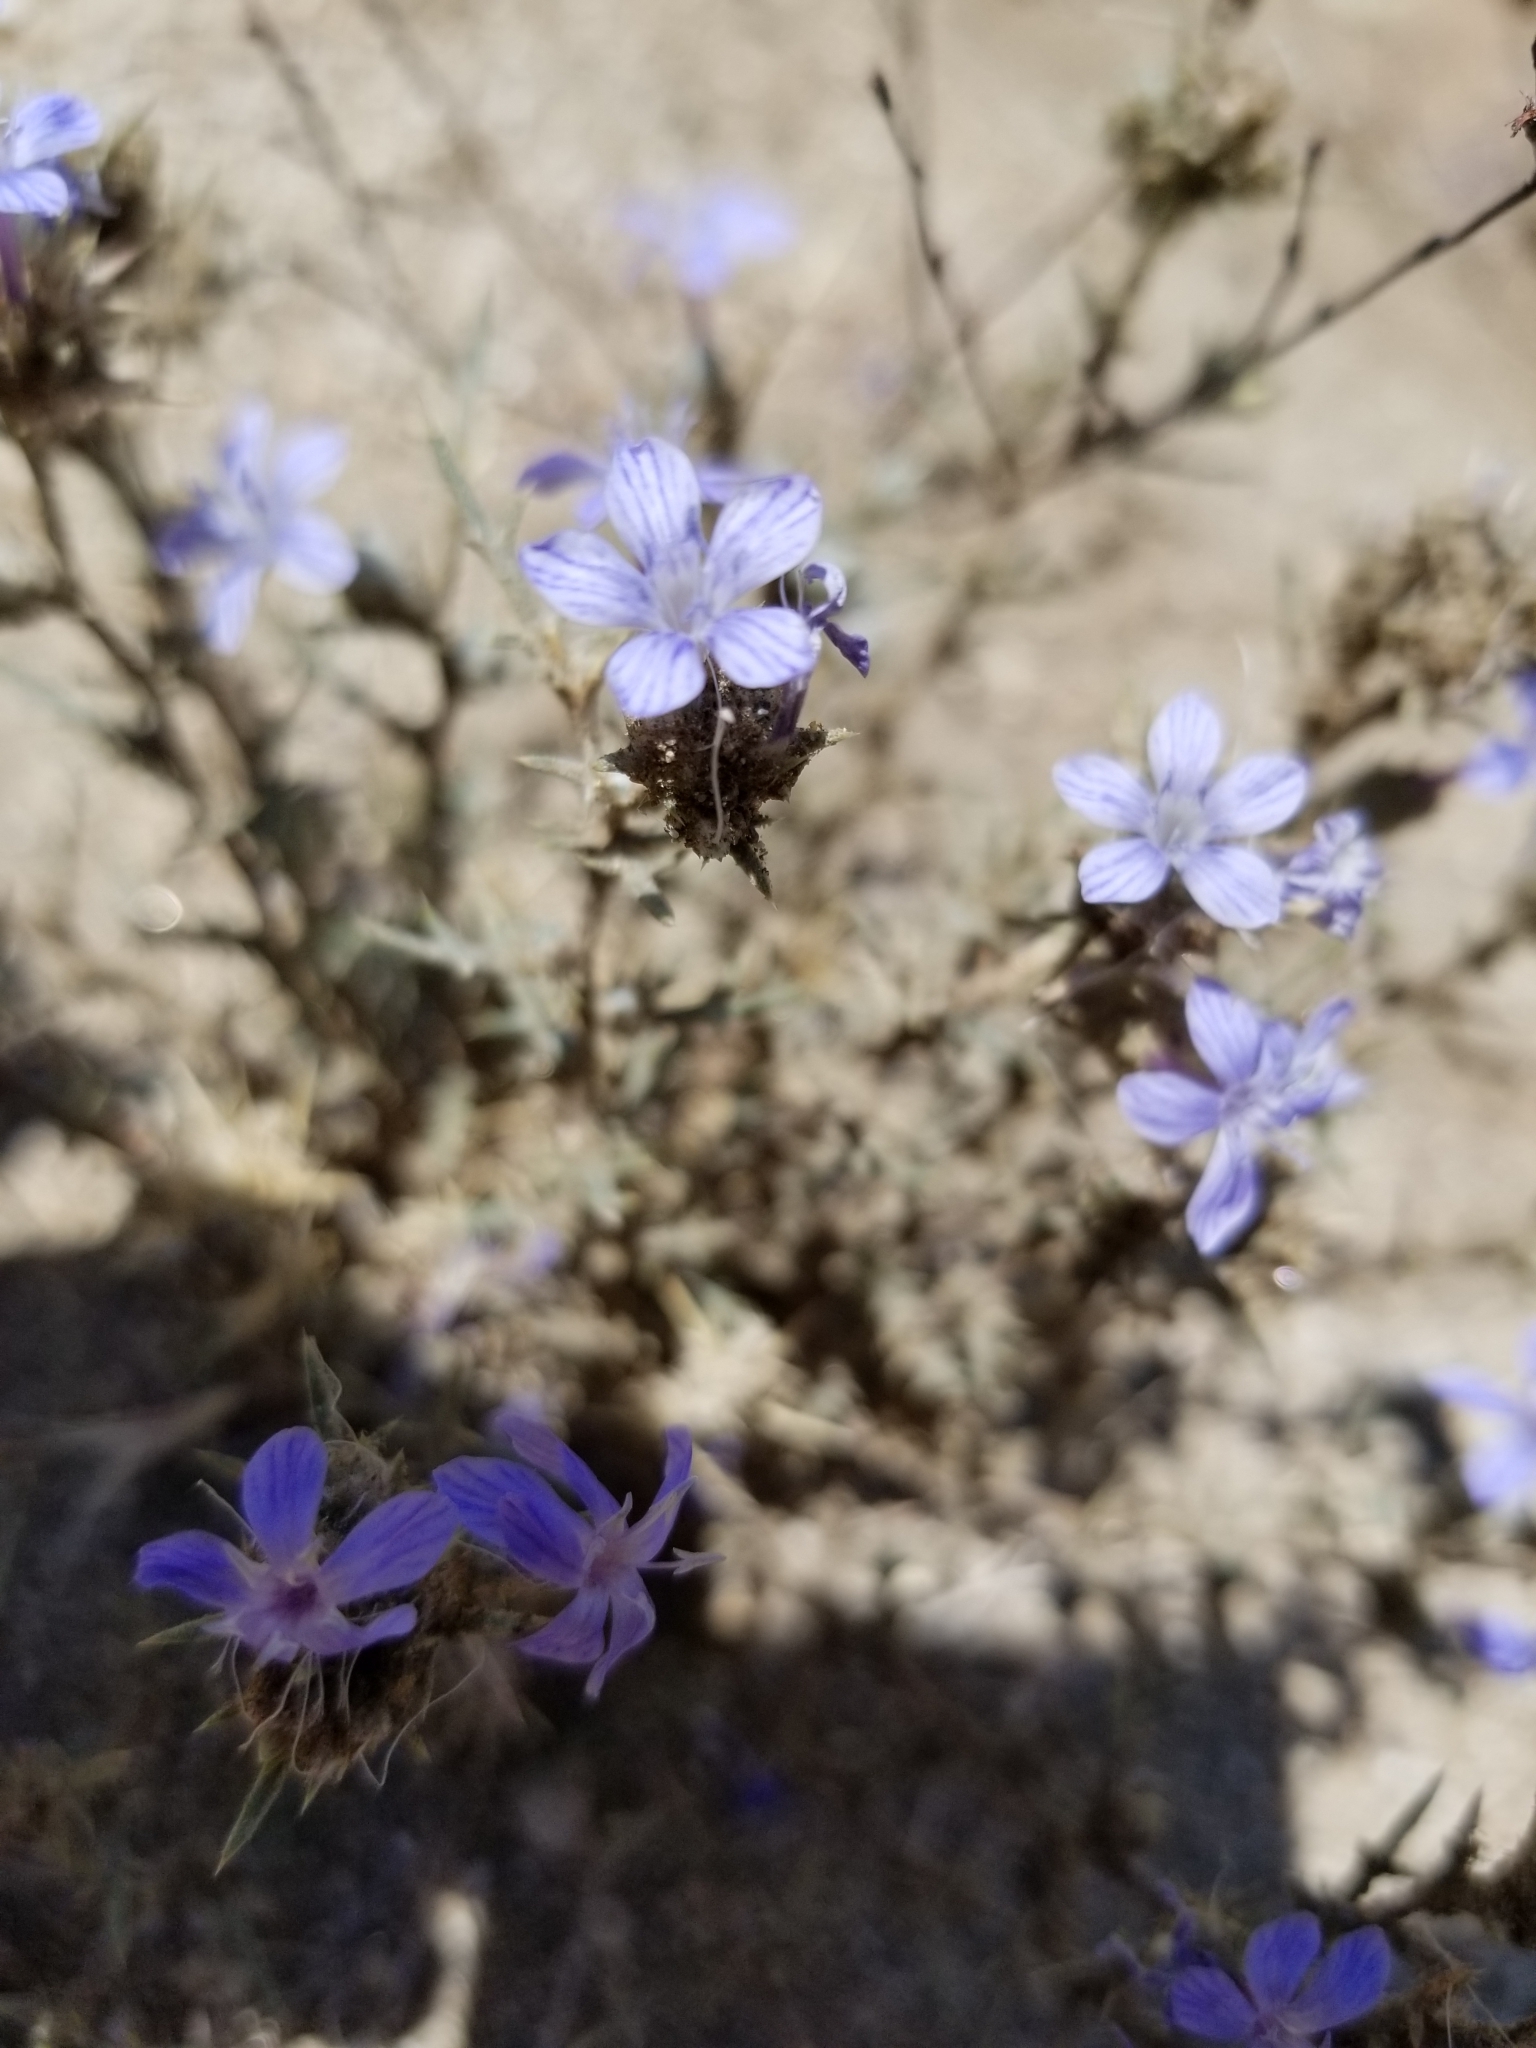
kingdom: Plantae
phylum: Tracheophyta
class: Magnoliopsida
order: Ericales
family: Polemoniaceae
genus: Eriastrum
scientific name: Eriastrum densifolium
